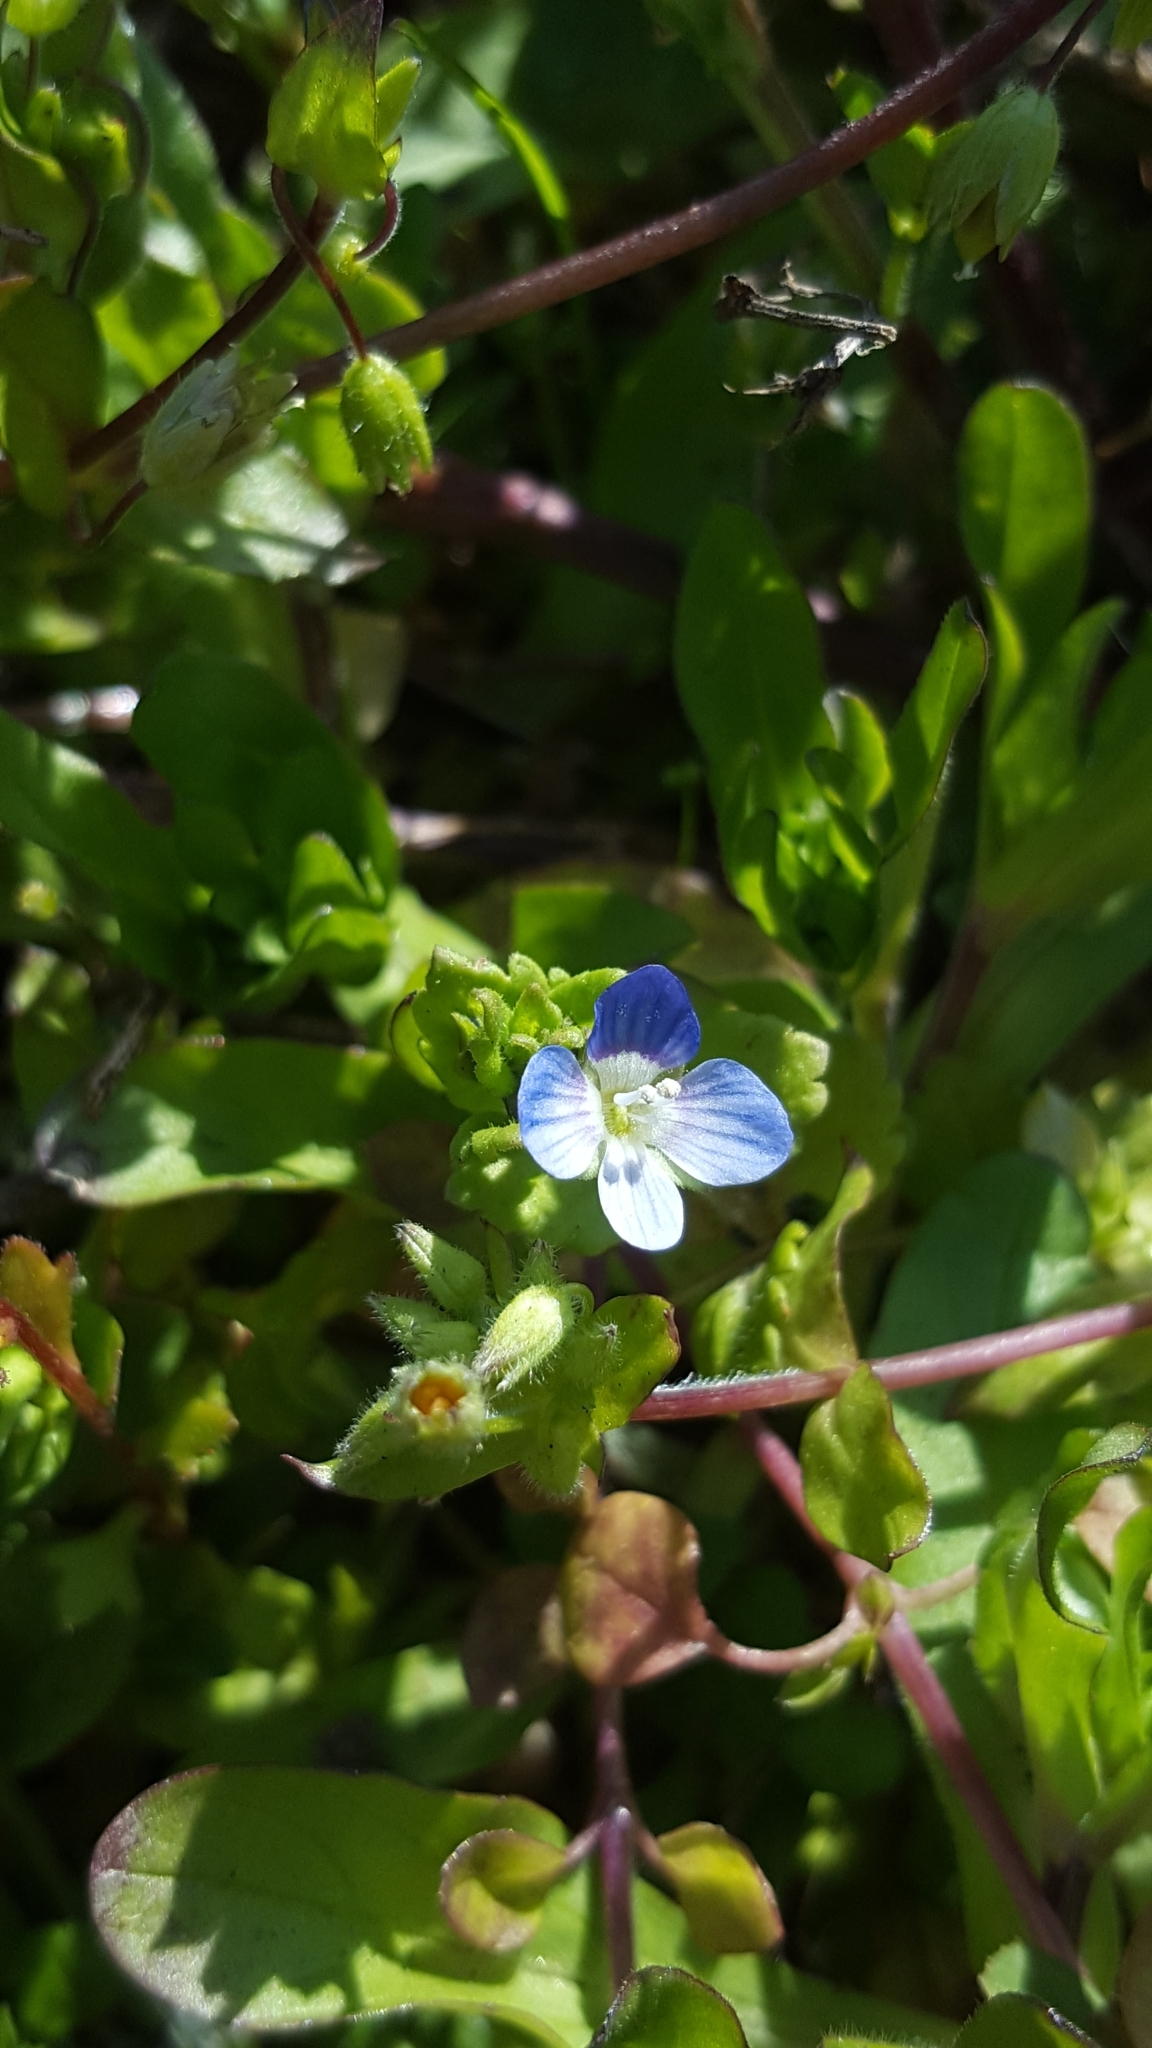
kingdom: Plantae
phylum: Tracheophyta
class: Magnoliopsida
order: Lamiales
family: Plantaginaceae
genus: Veronica
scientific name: Veronica persica
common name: Common field-speedwell
